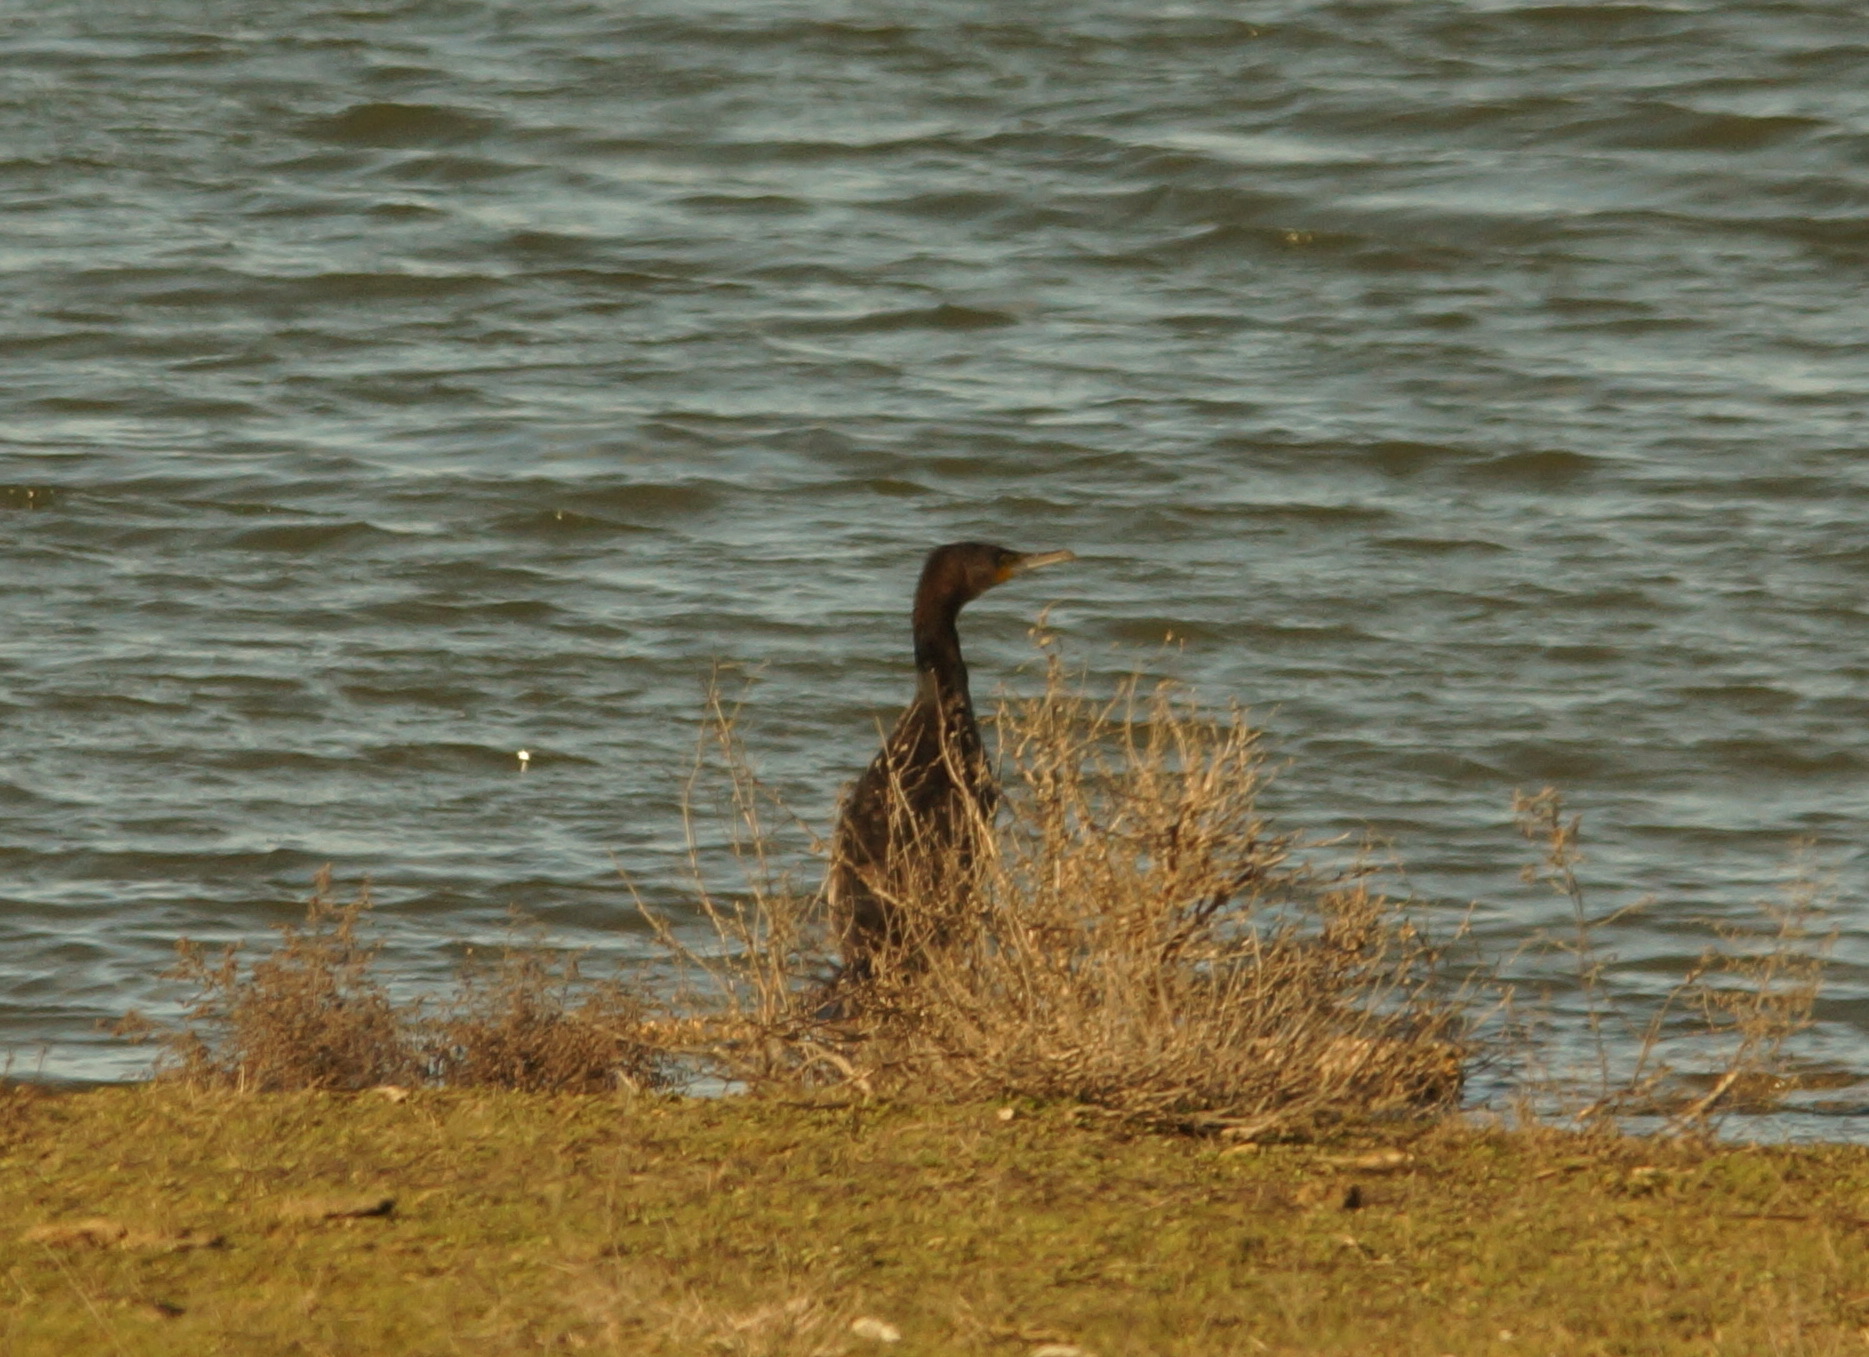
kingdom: Animalia
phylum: Chordata
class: Aves
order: Suliformes
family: Phalacrocoracidae
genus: Phalacrocorax
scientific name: Phalacrocorax carbo
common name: Great cormorant
